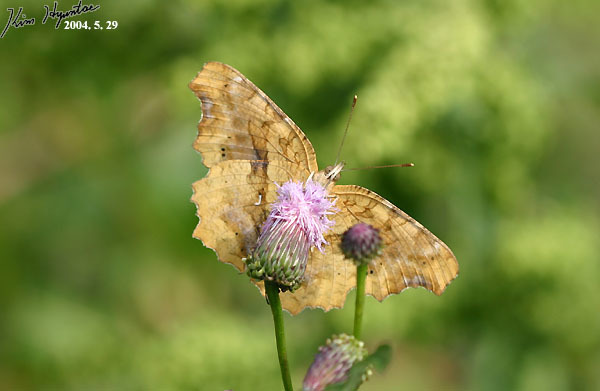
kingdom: Animalia
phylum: Arthropoda
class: Insecta
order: Lepidoptera
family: Nymphalidae
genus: Polygonia
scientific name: Polygonia c-aureum
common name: Asian comma
